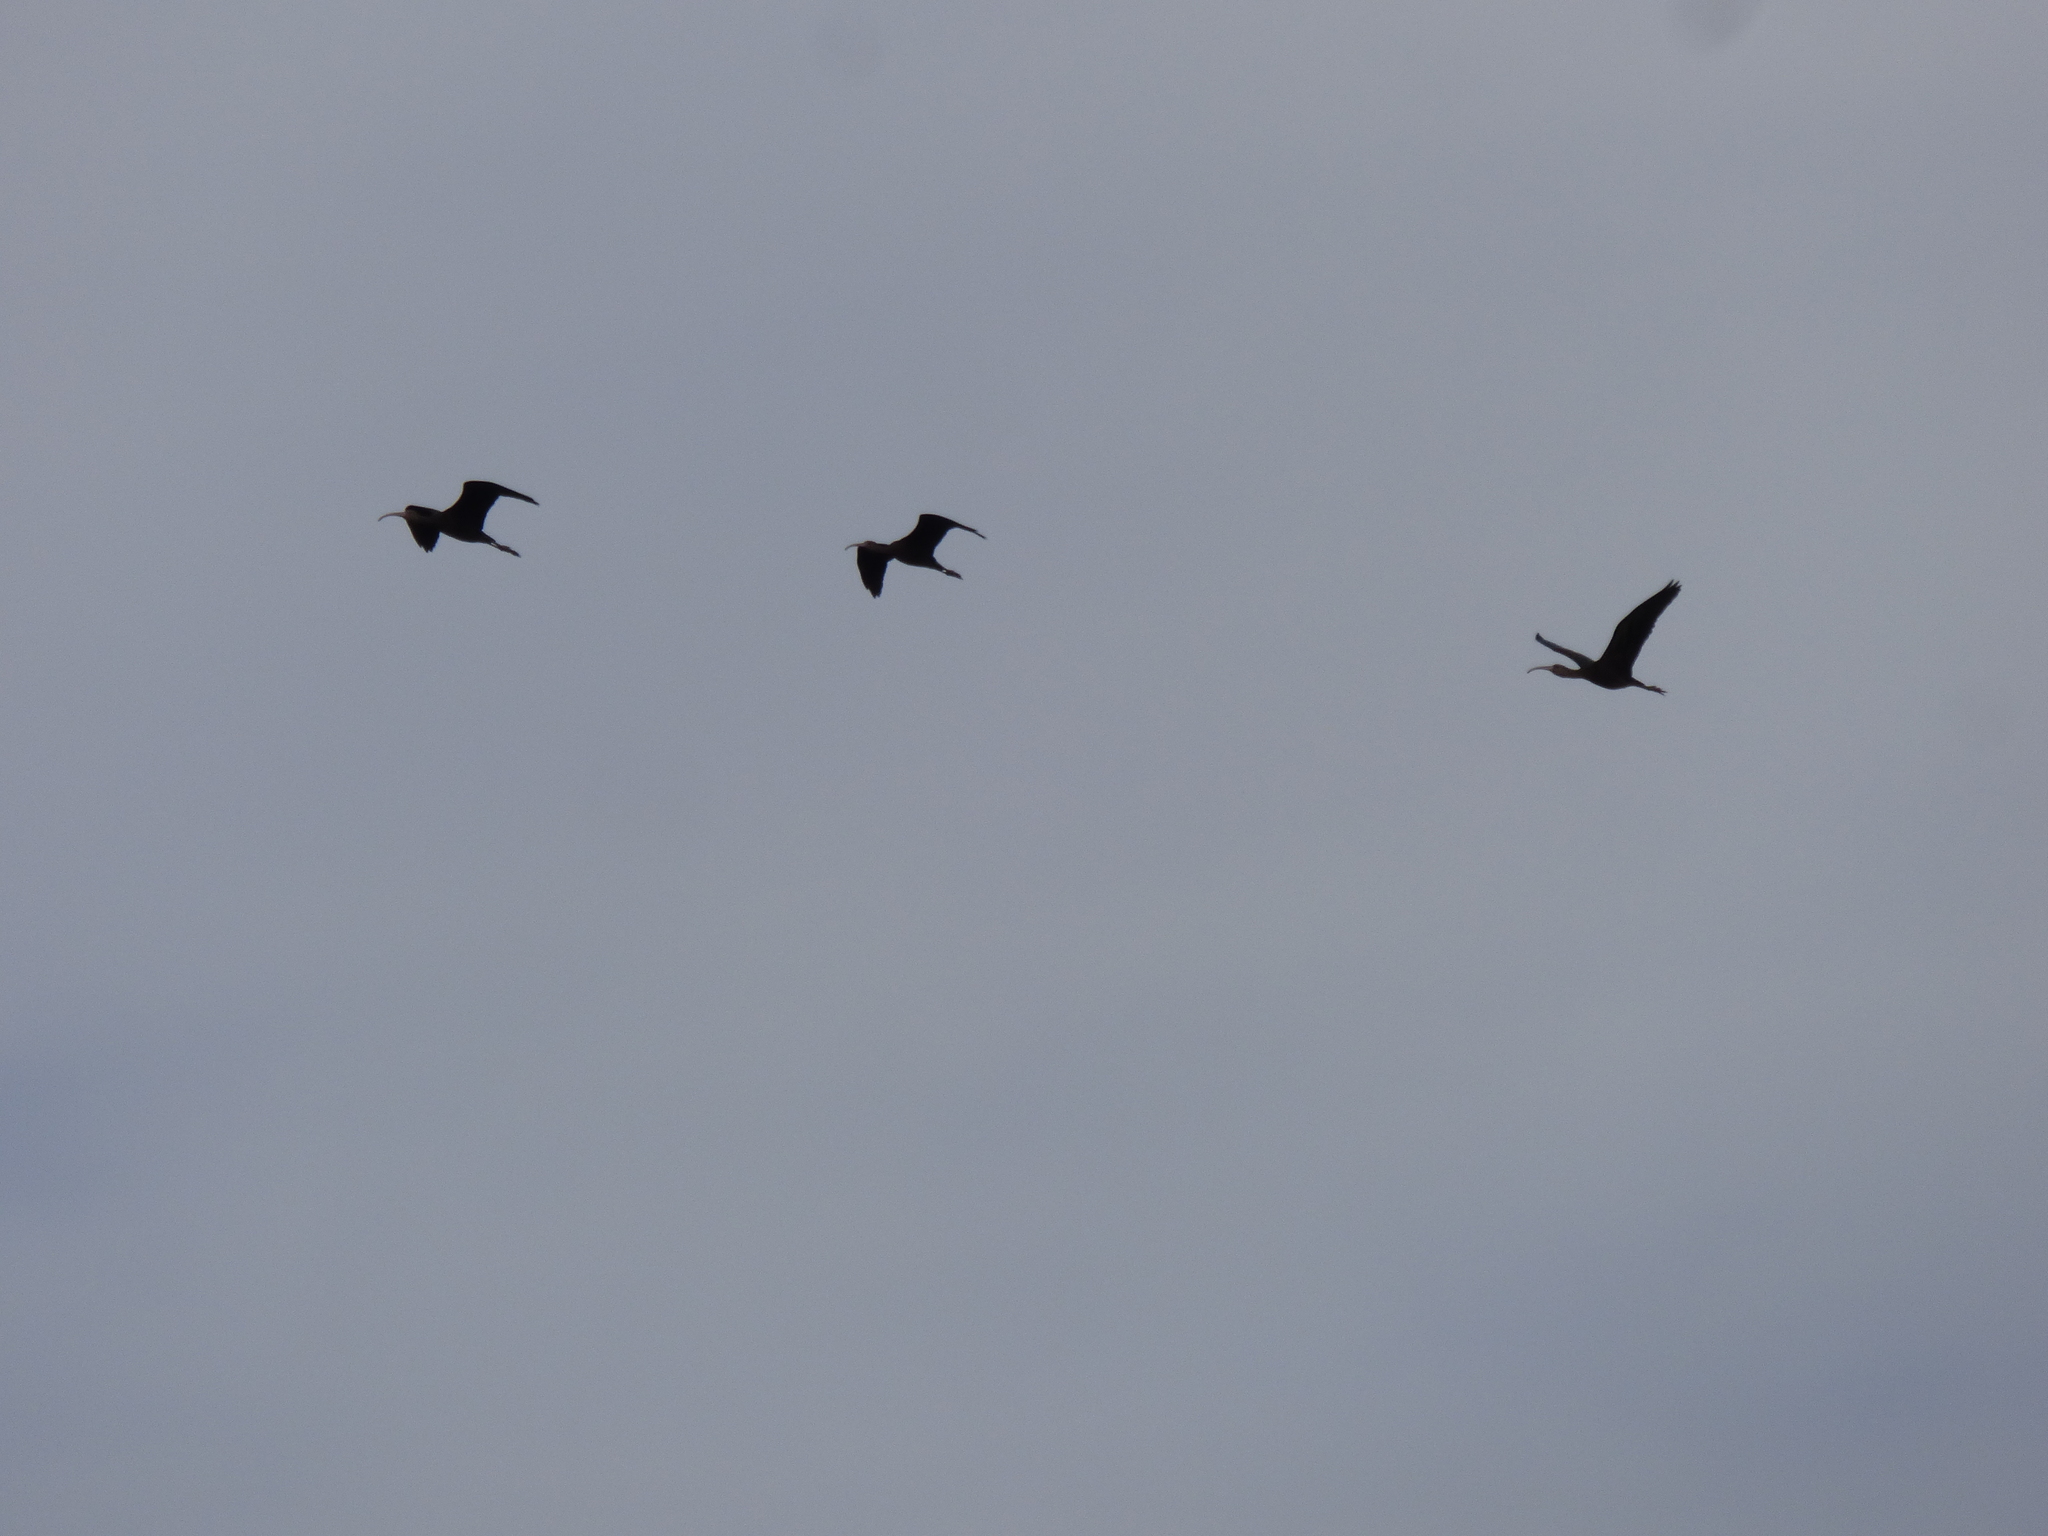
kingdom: Animalia
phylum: Chordata
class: Aves
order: Pelecaniformes
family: Threskiornithidae
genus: Plegadis
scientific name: Plegadis chihi
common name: White-faced ibis
